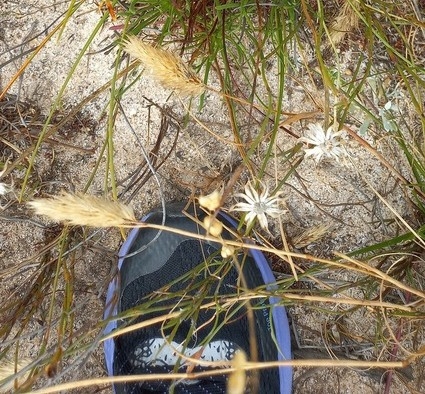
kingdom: Plantae
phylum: Tracheophyta
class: Liliopsida
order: Poales
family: Poaceae
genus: Pentameris
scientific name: Pentameris curvifolia
